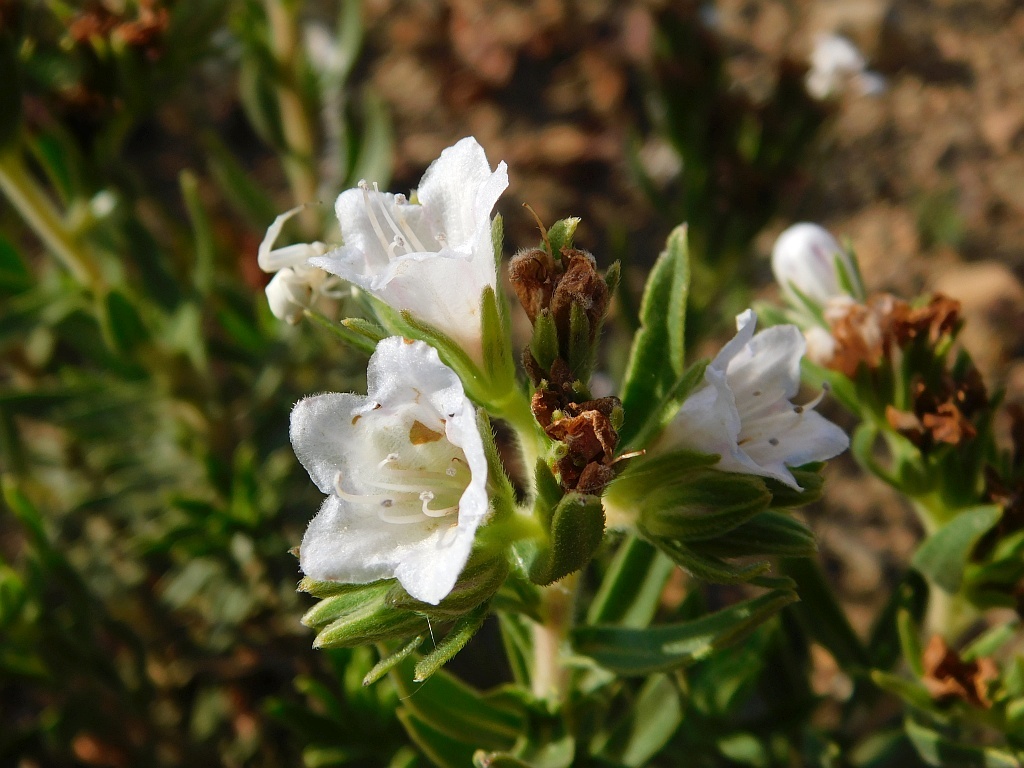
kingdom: Plantae
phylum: Tracheophyta
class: Magnoliopsida
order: Boraginales
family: Boraginaceae
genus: Lobostemon
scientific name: Lobostemon fruticosus
